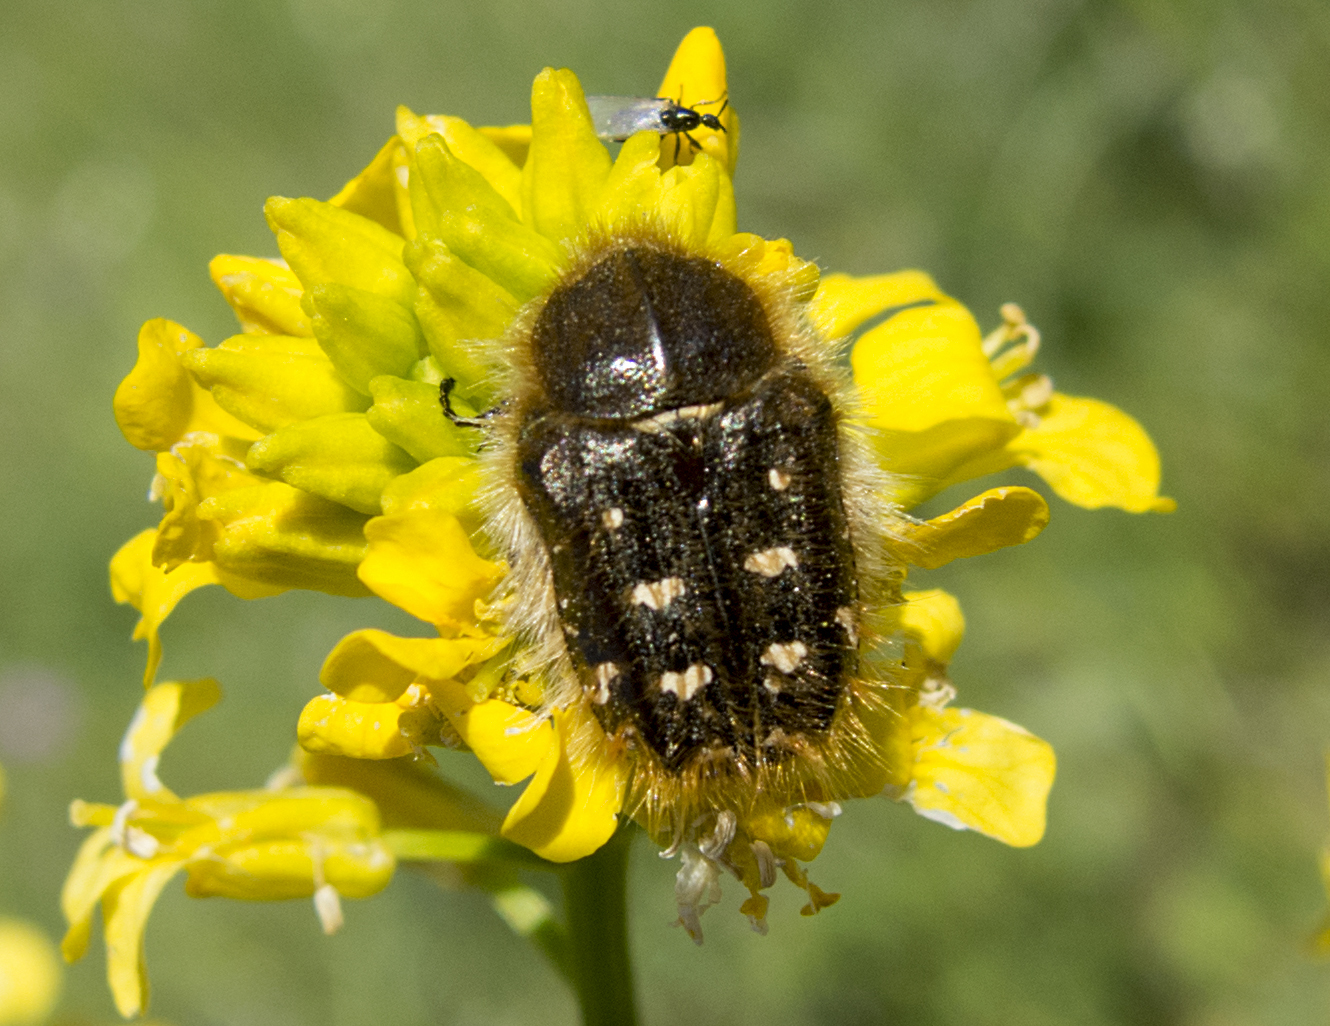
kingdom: Animalia
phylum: Arthropoda
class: Insecta
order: Coleoptera
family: Scarabaeidae
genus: Tropinota
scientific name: Tropinota squalida
